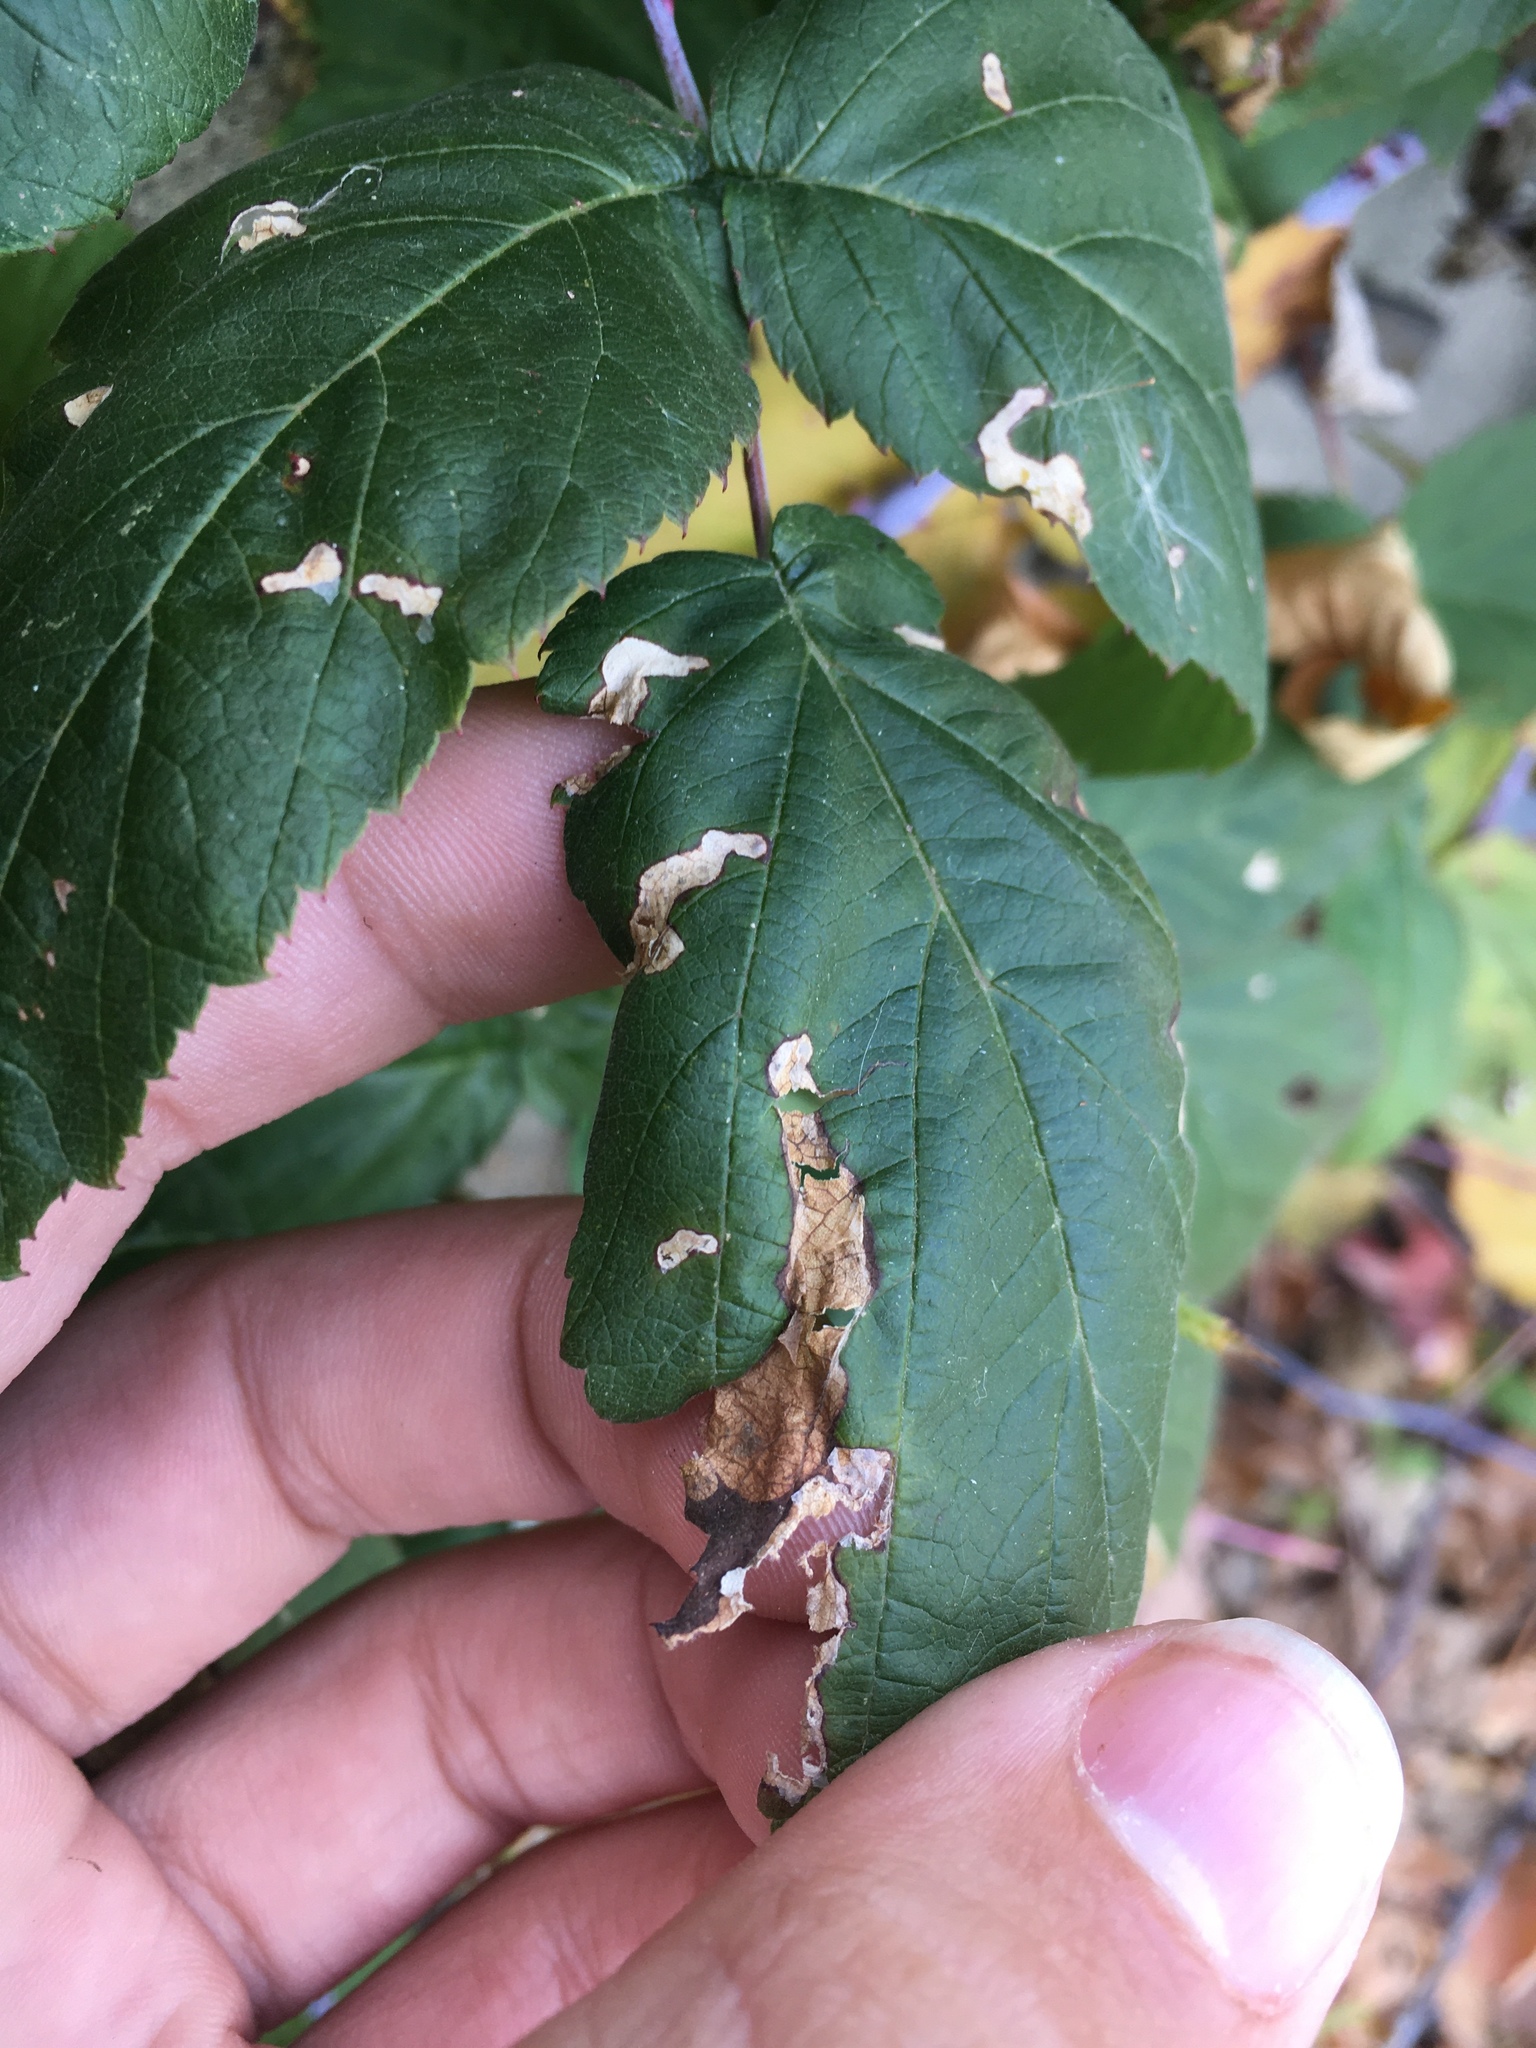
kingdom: Animalia
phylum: Arthropoda
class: Insecta
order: Hymenoptera
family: Tenthredinidae
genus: Metallus
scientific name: Metallus capitalis
